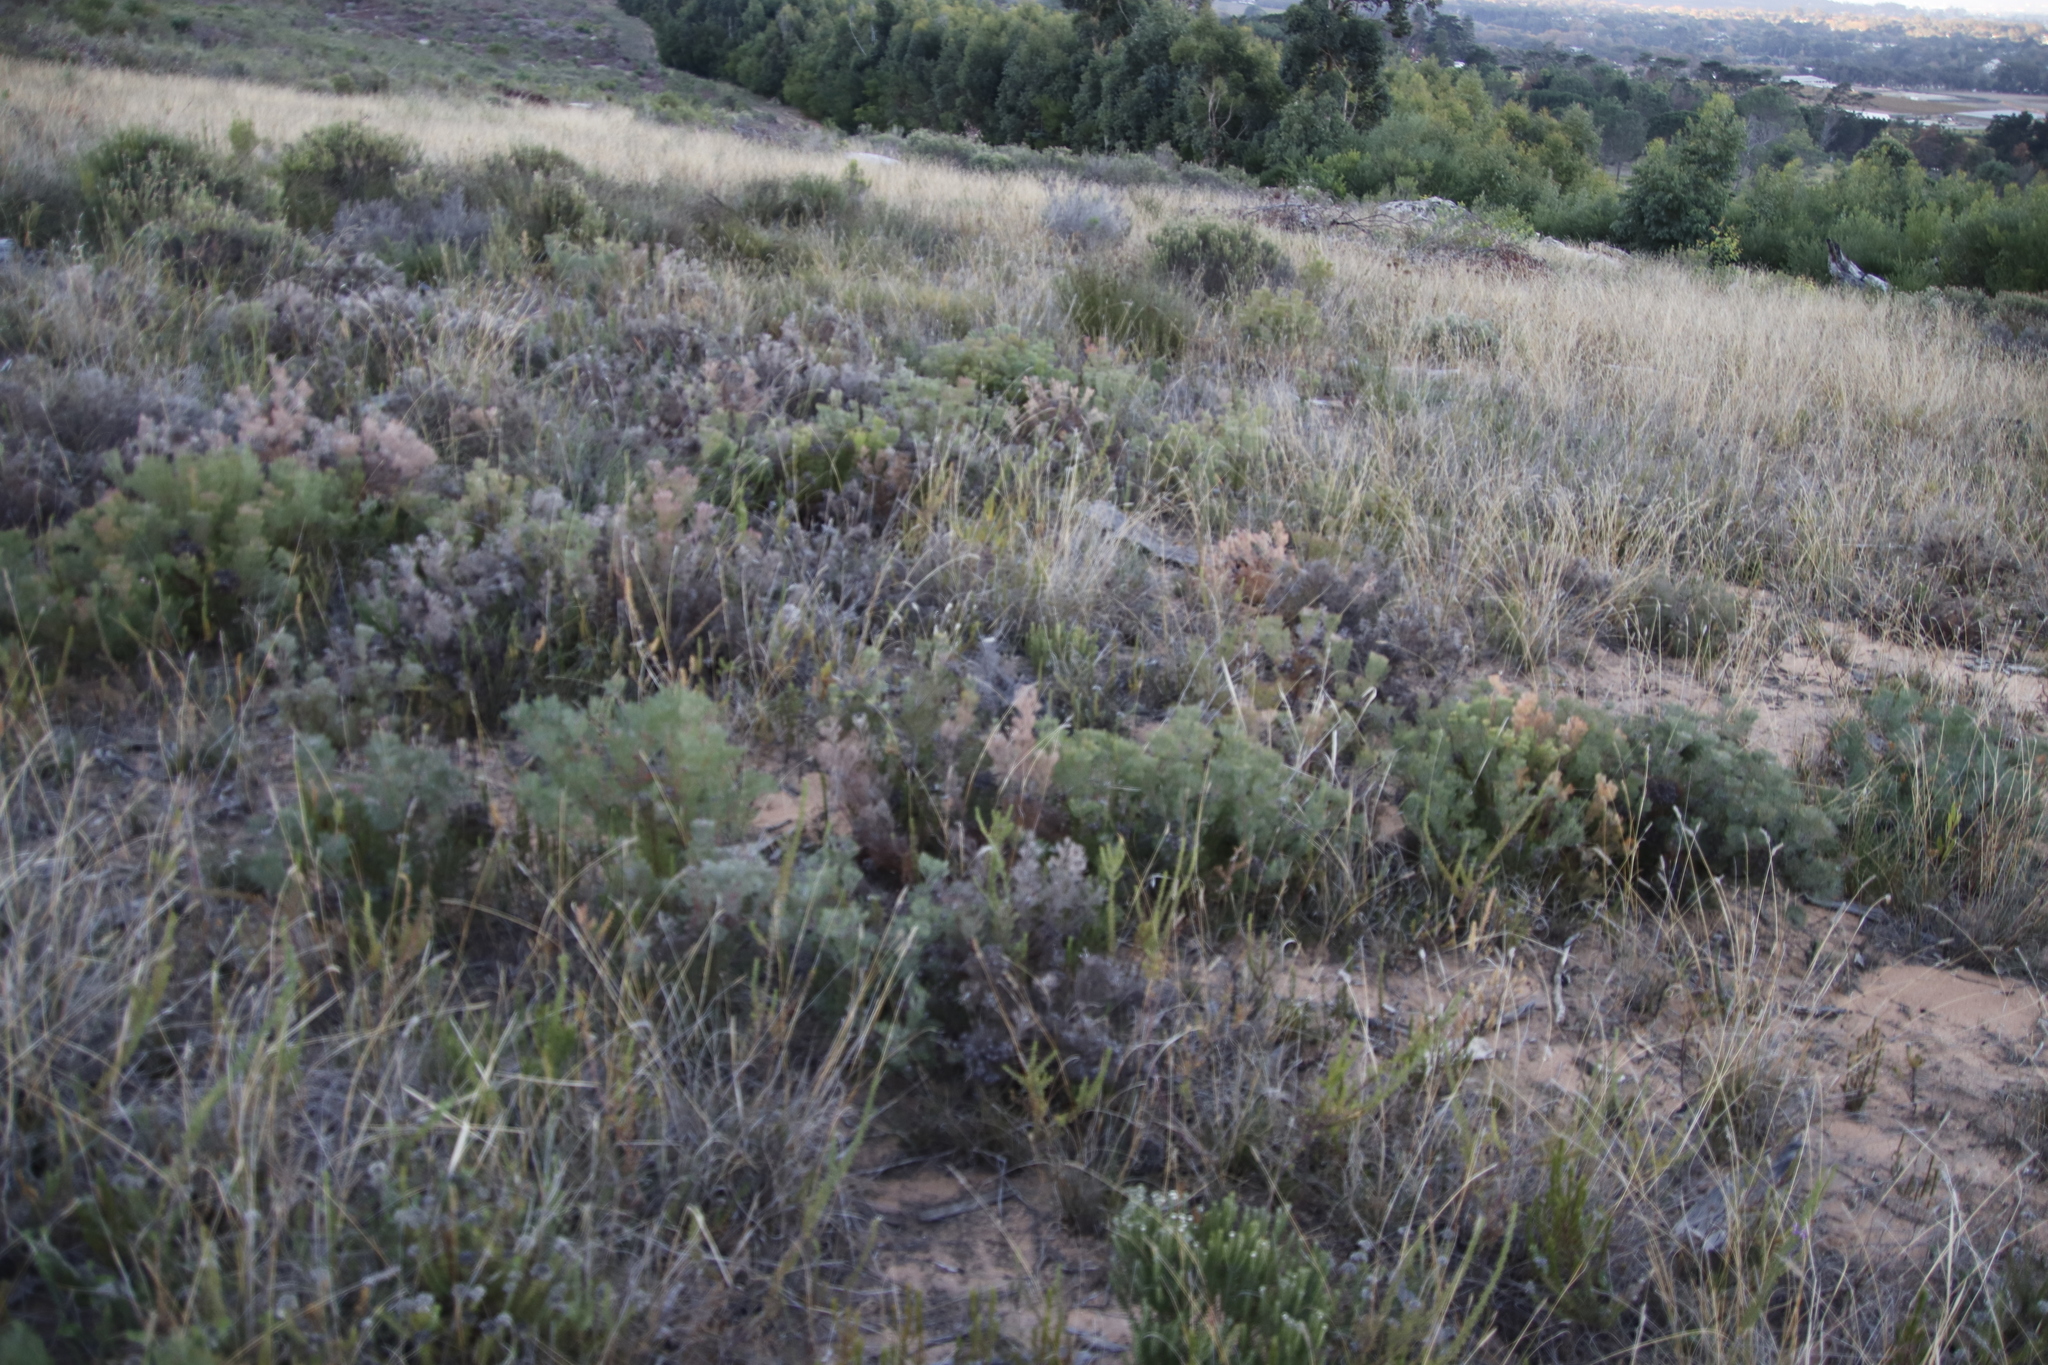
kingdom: Plantae
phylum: Tracheophyta
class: Magnoliopsida
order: Proteales
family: Proteaceae
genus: Serruria
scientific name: Serruria fasciflora
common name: Common pin spiderhead
